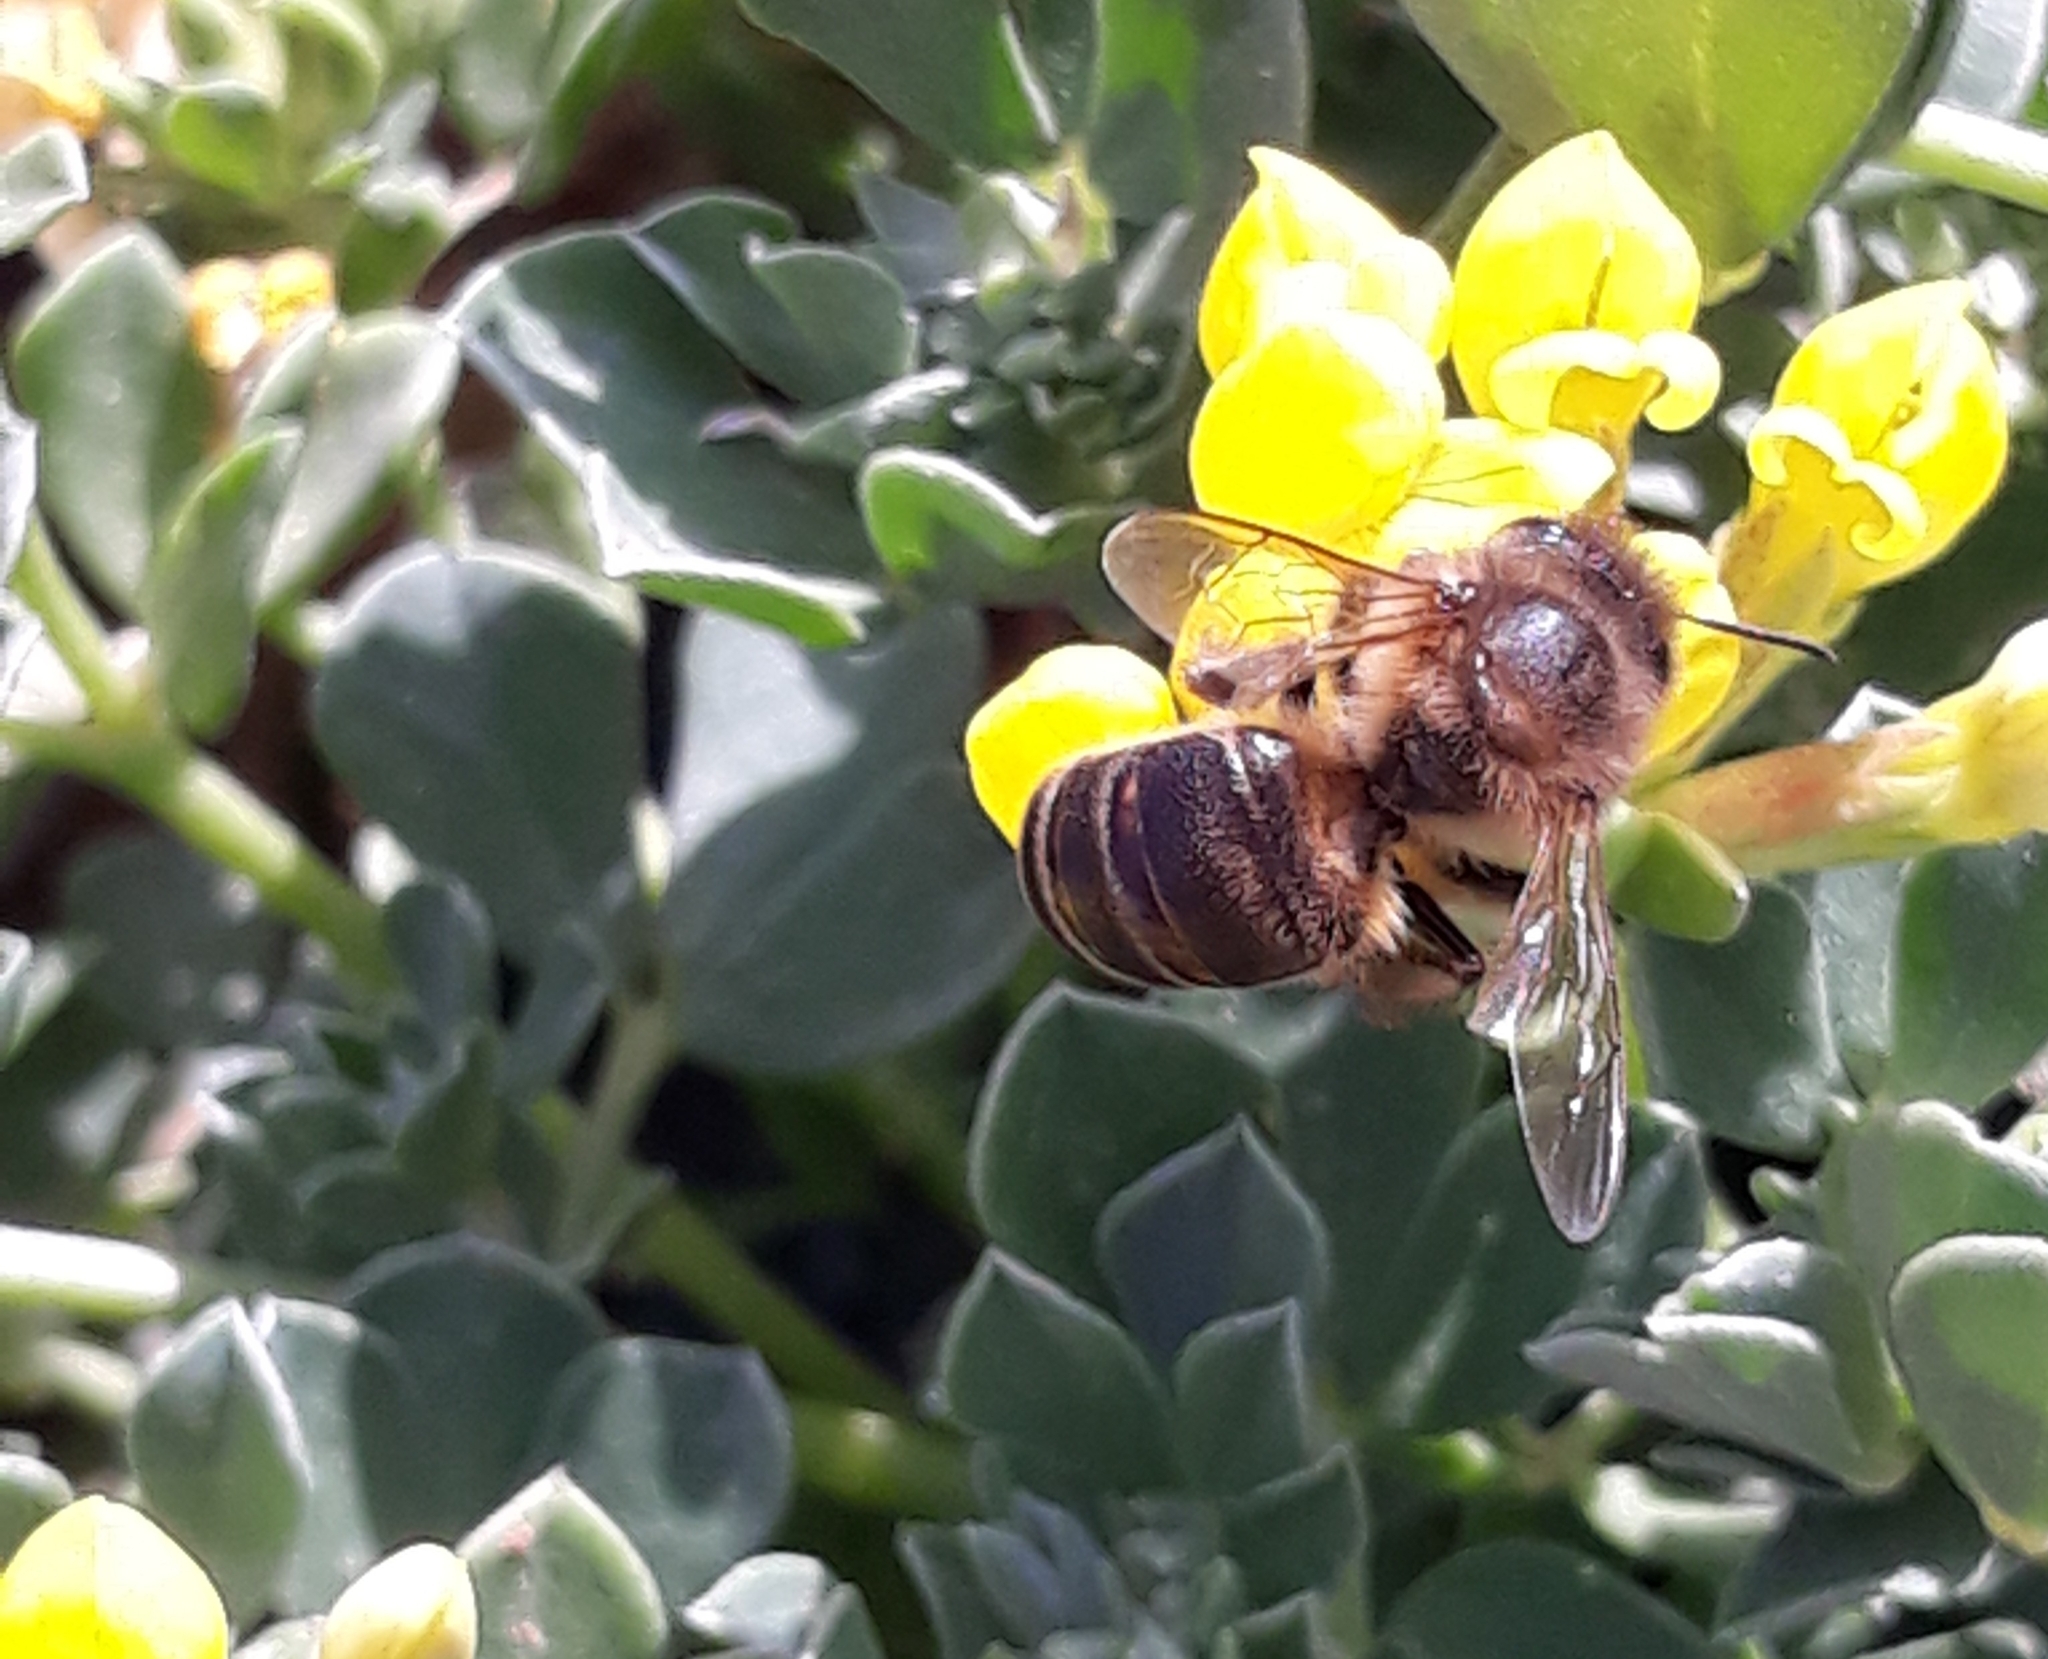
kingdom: Animalia
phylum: Arthropoda
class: Insecta
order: Hymenoptera
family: Apidae
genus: Apis
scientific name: Apis mellifera
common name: Honey bee
